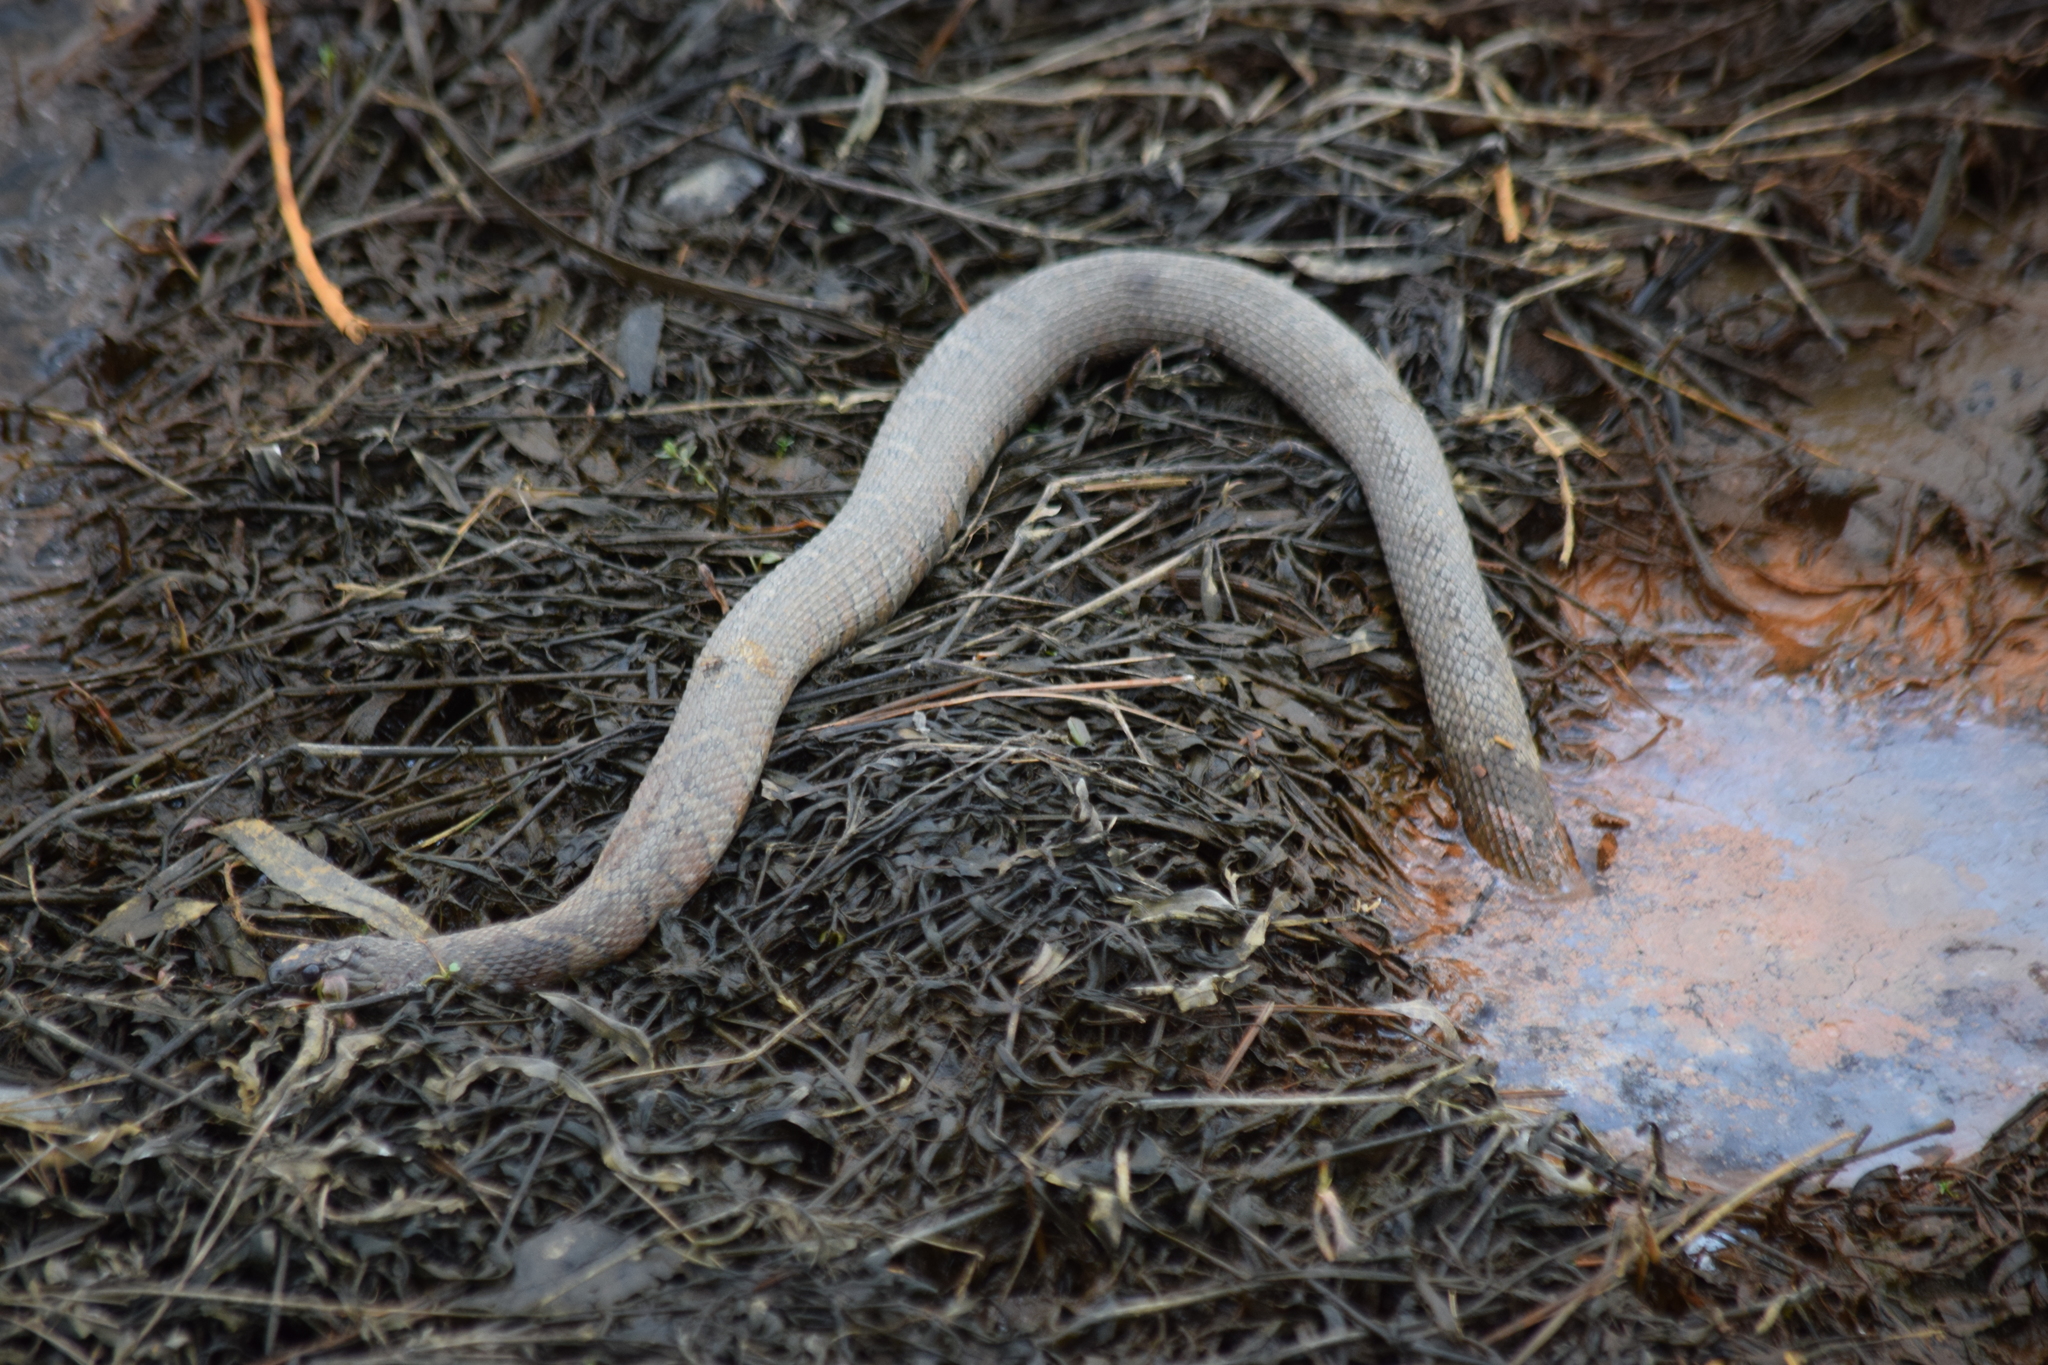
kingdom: Animalia
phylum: Chordata
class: Squamata
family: Colubridae
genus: Nerodia
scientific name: Nerodia sipedon
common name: Northern water snake
